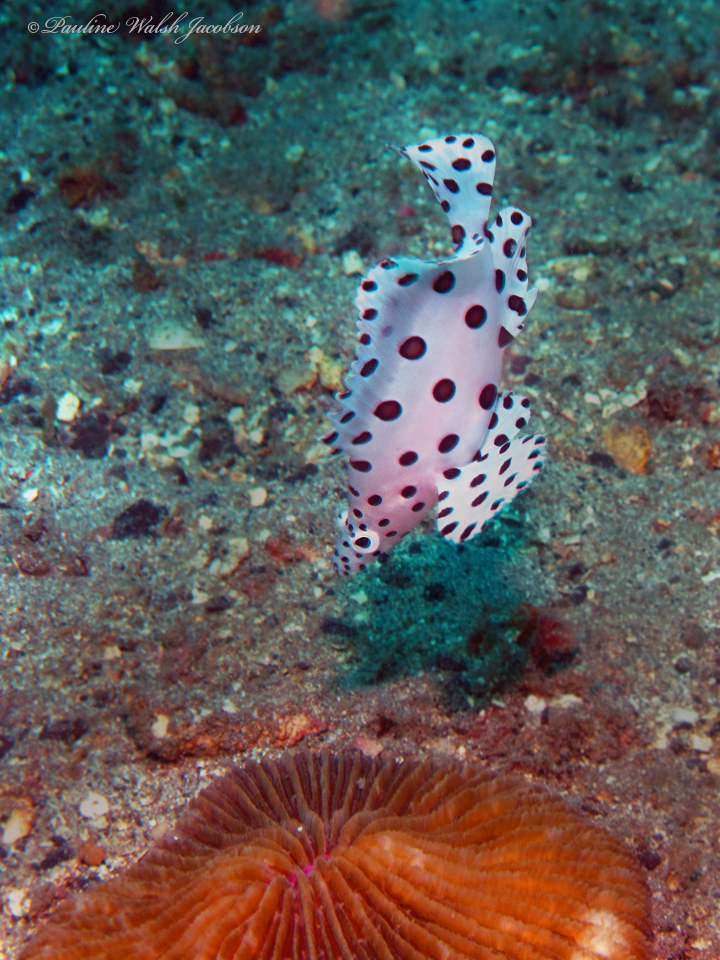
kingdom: Animalia
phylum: Chordata
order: Perciformes
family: Serranidae
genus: Cromileptes
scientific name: Cromileptes altivelis
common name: Humpback grouper
